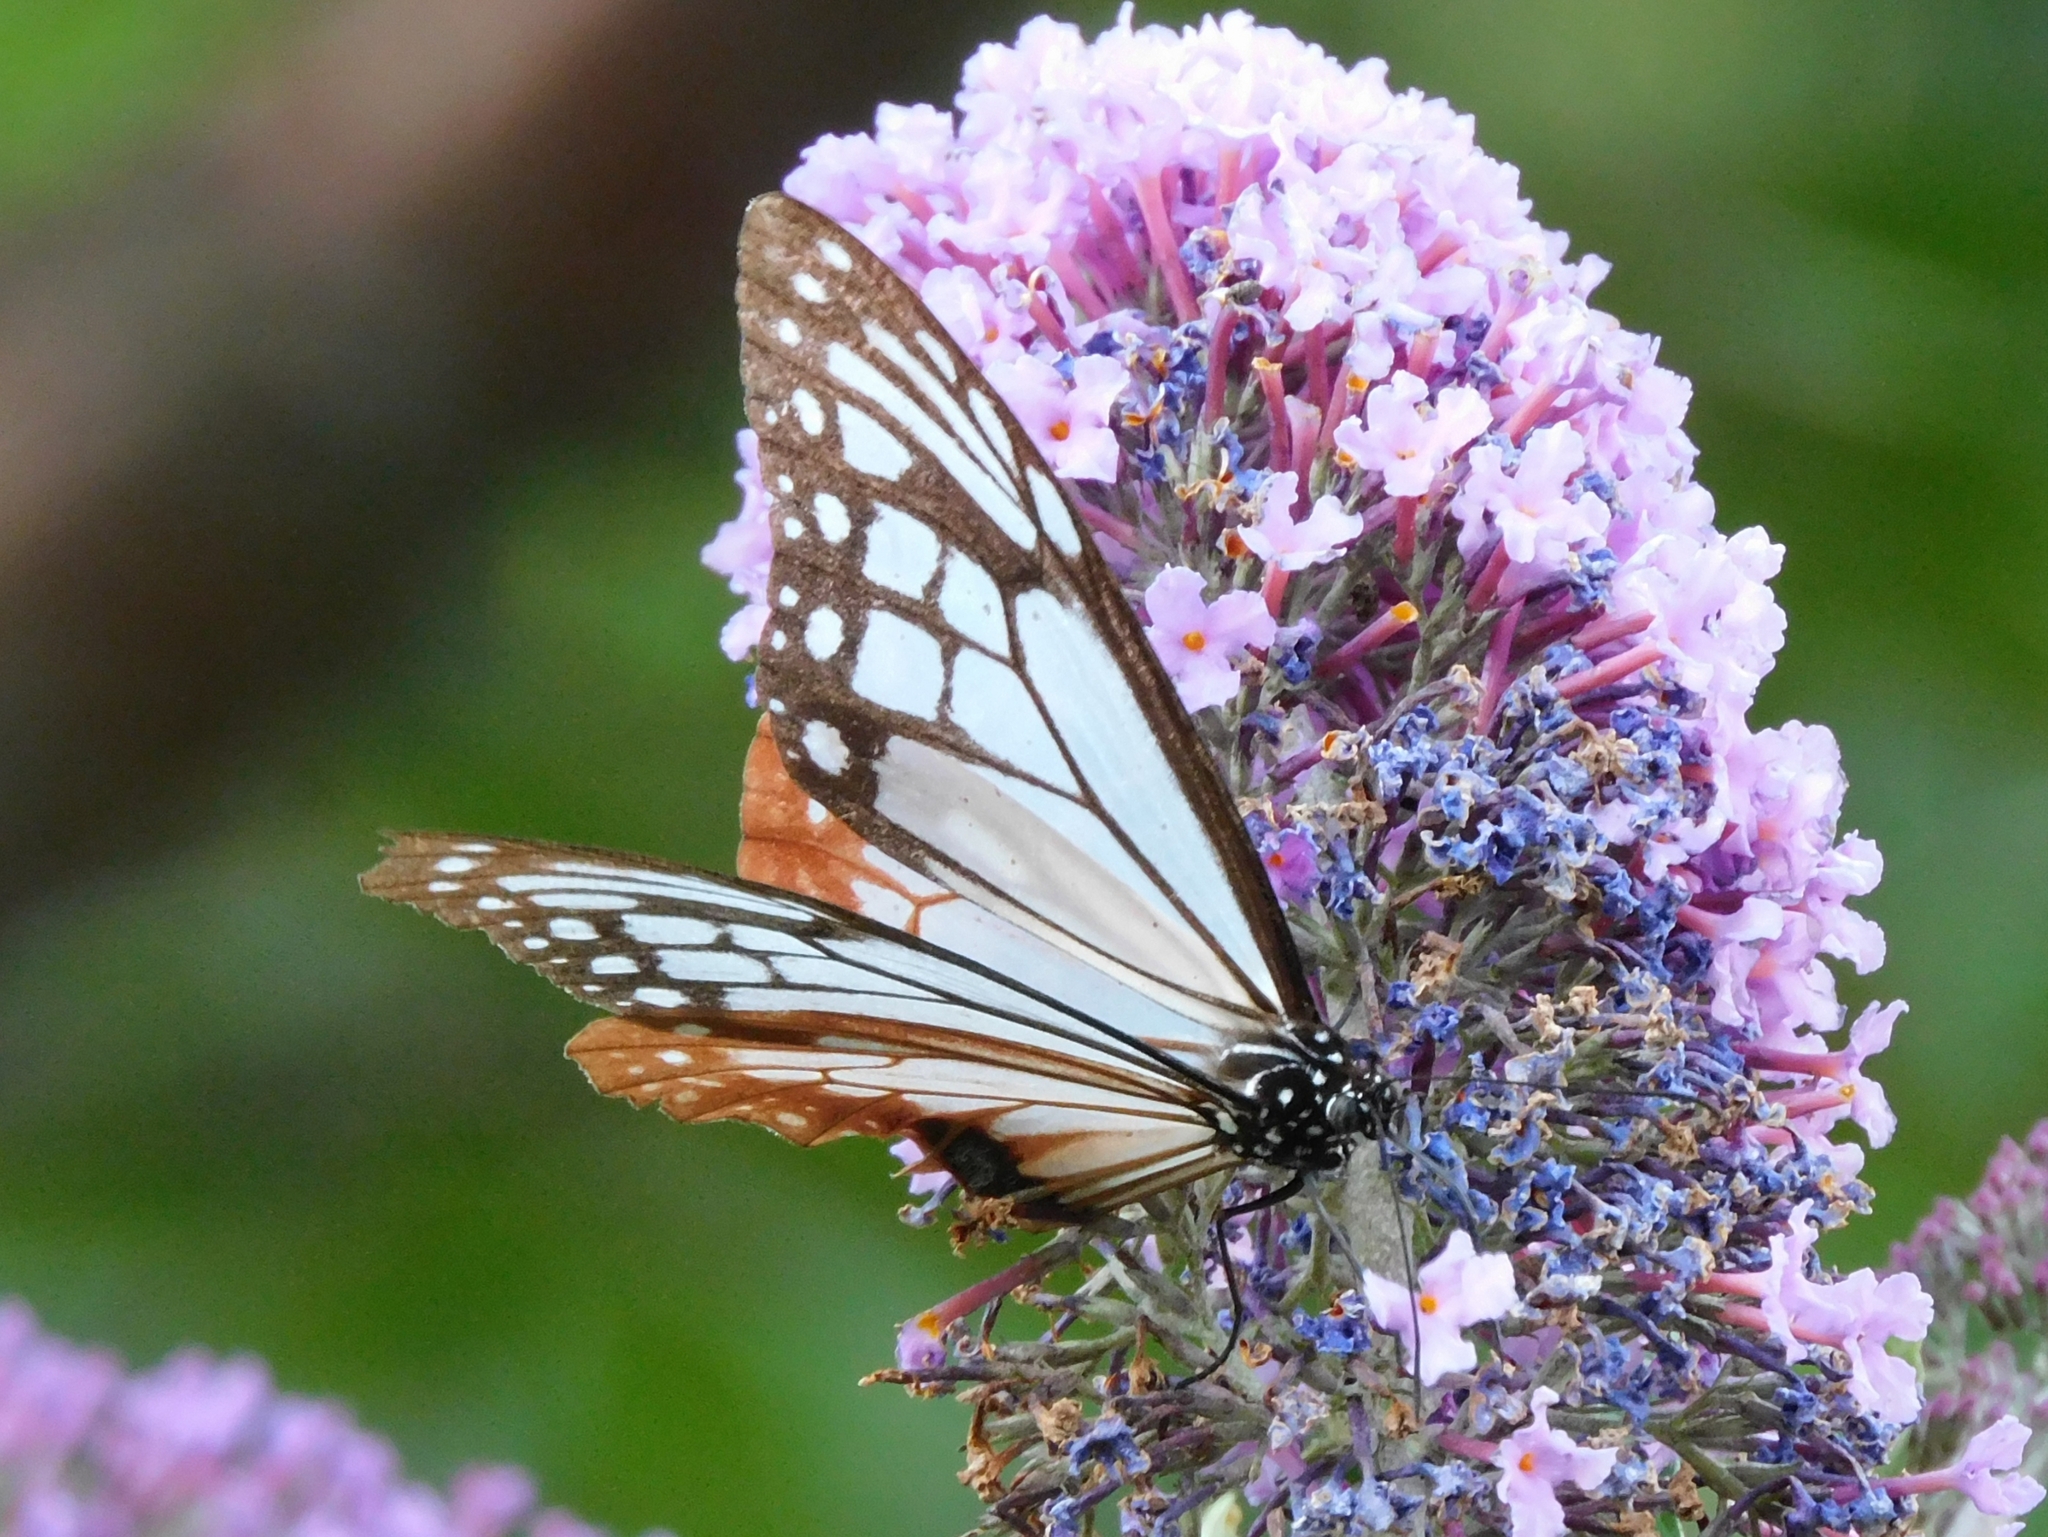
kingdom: Animalia
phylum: Arthropoda
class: Insecta
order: Lepidoptera
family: Nymphalidae
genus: Parantica
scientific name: Parantica sita
